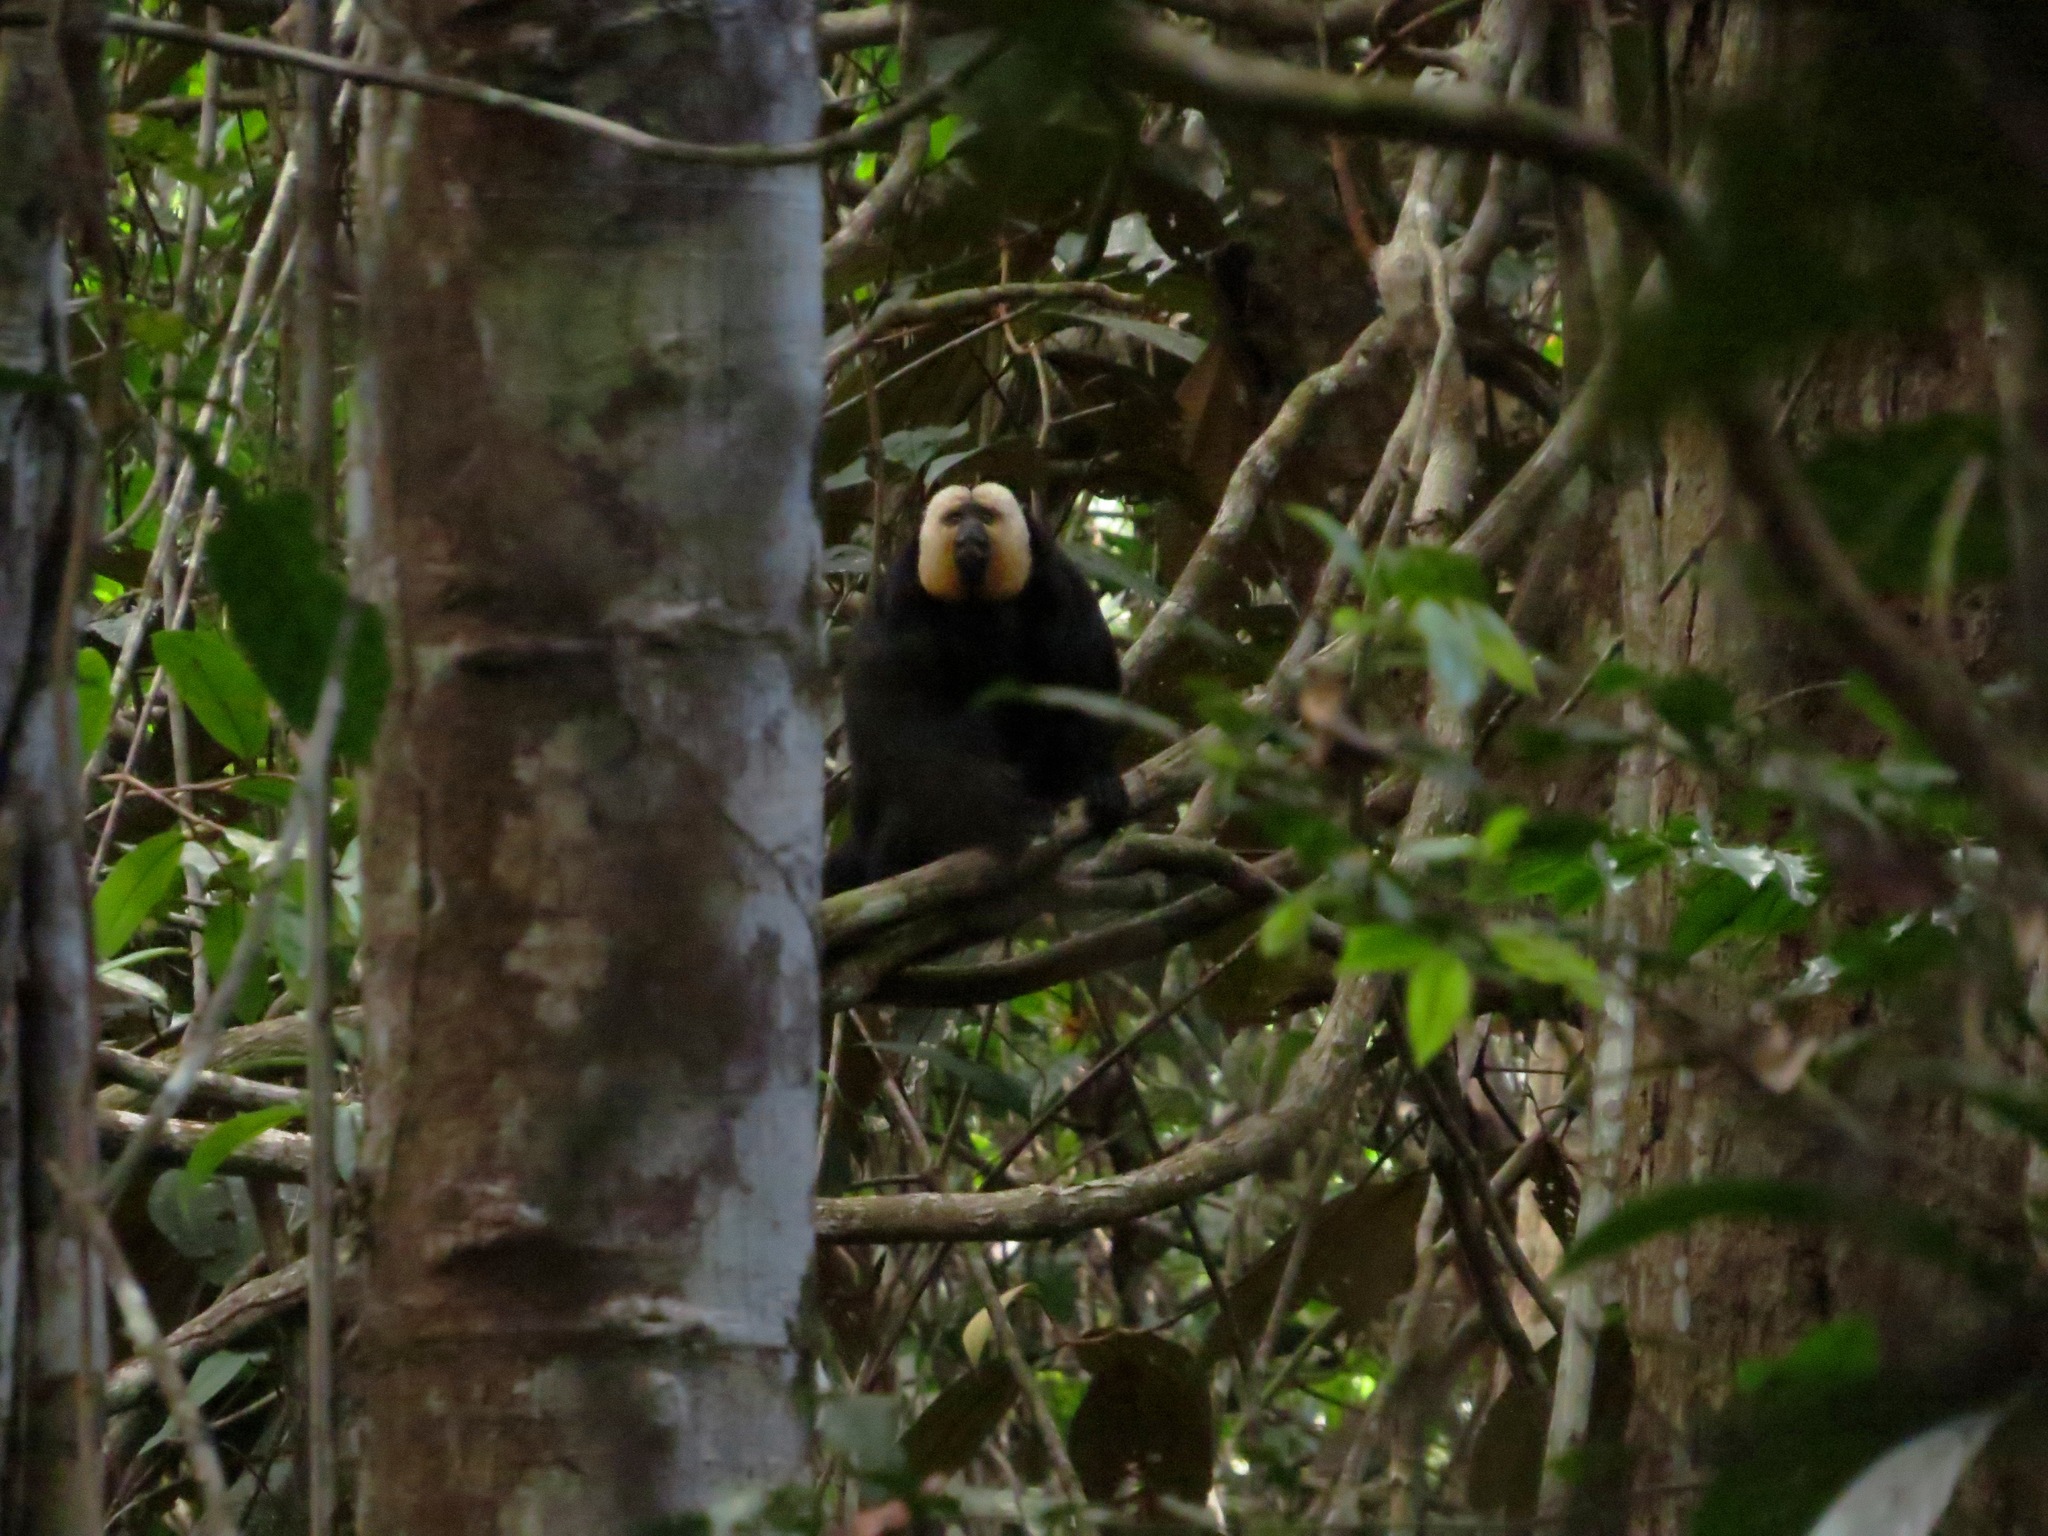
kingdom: Animalia
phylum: Chordata
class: Mammalia
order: Primates
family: Pitheciidae
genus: Pithecia
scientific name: Pithecia pithecia
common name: White-faced saki
